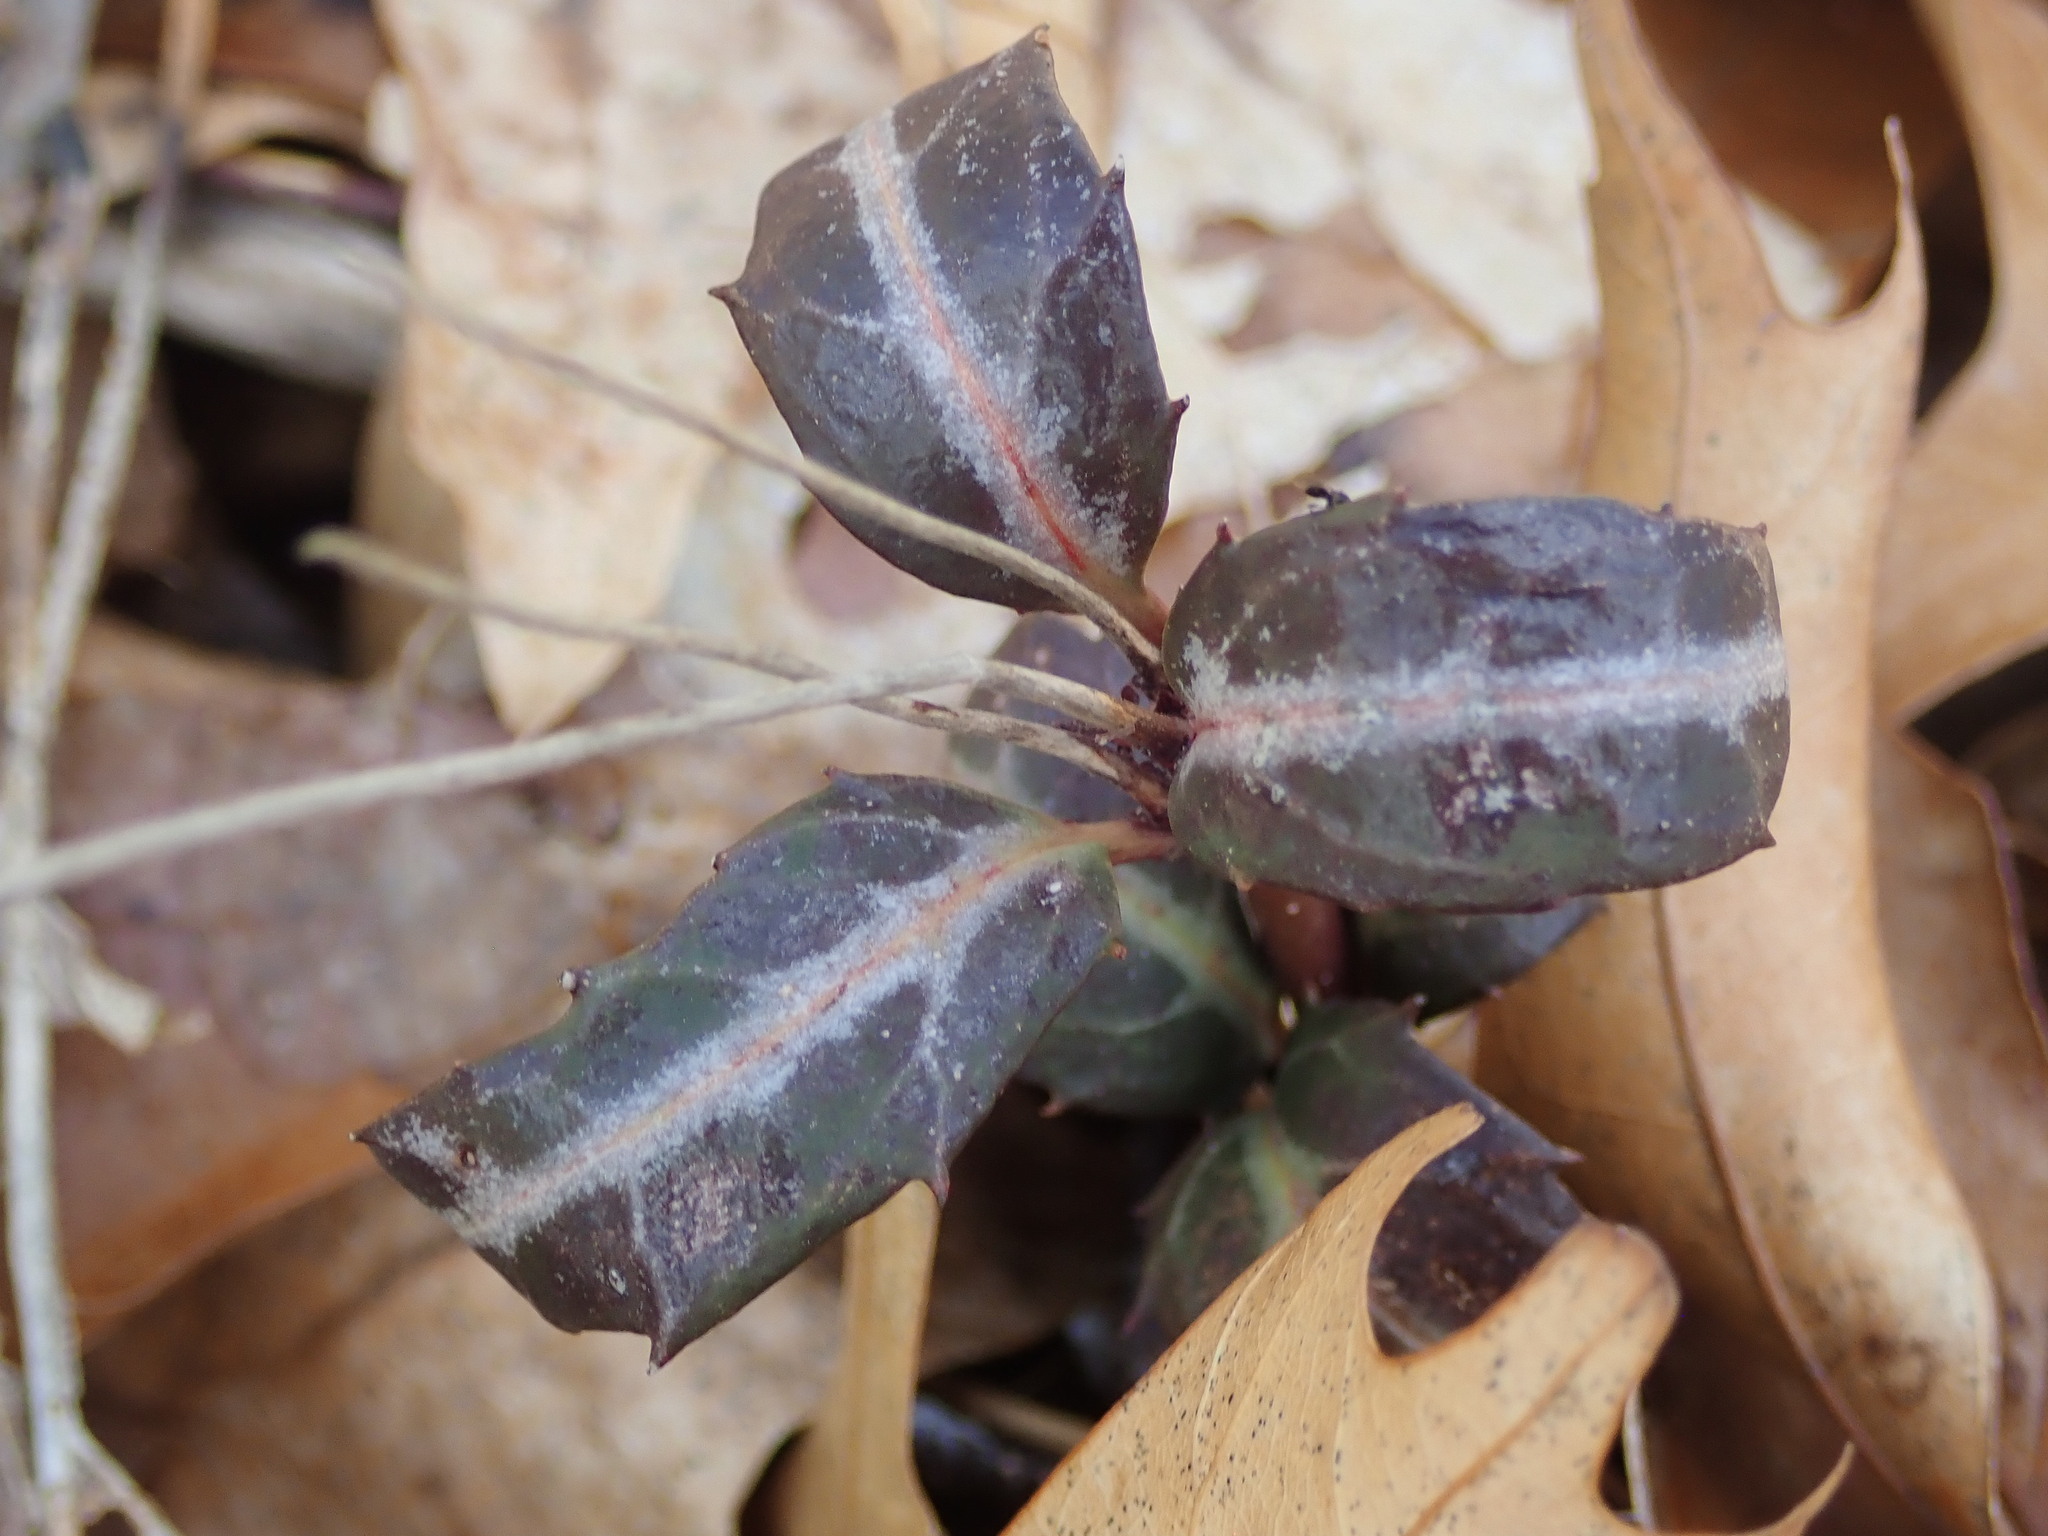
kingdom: Plantae
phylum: Tracheophyta
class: Magnoliopsida
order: Ericales
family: Ericaceae
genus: Chimaphila
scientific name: Chimaphila maculata
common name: Spotted pipsissewa
